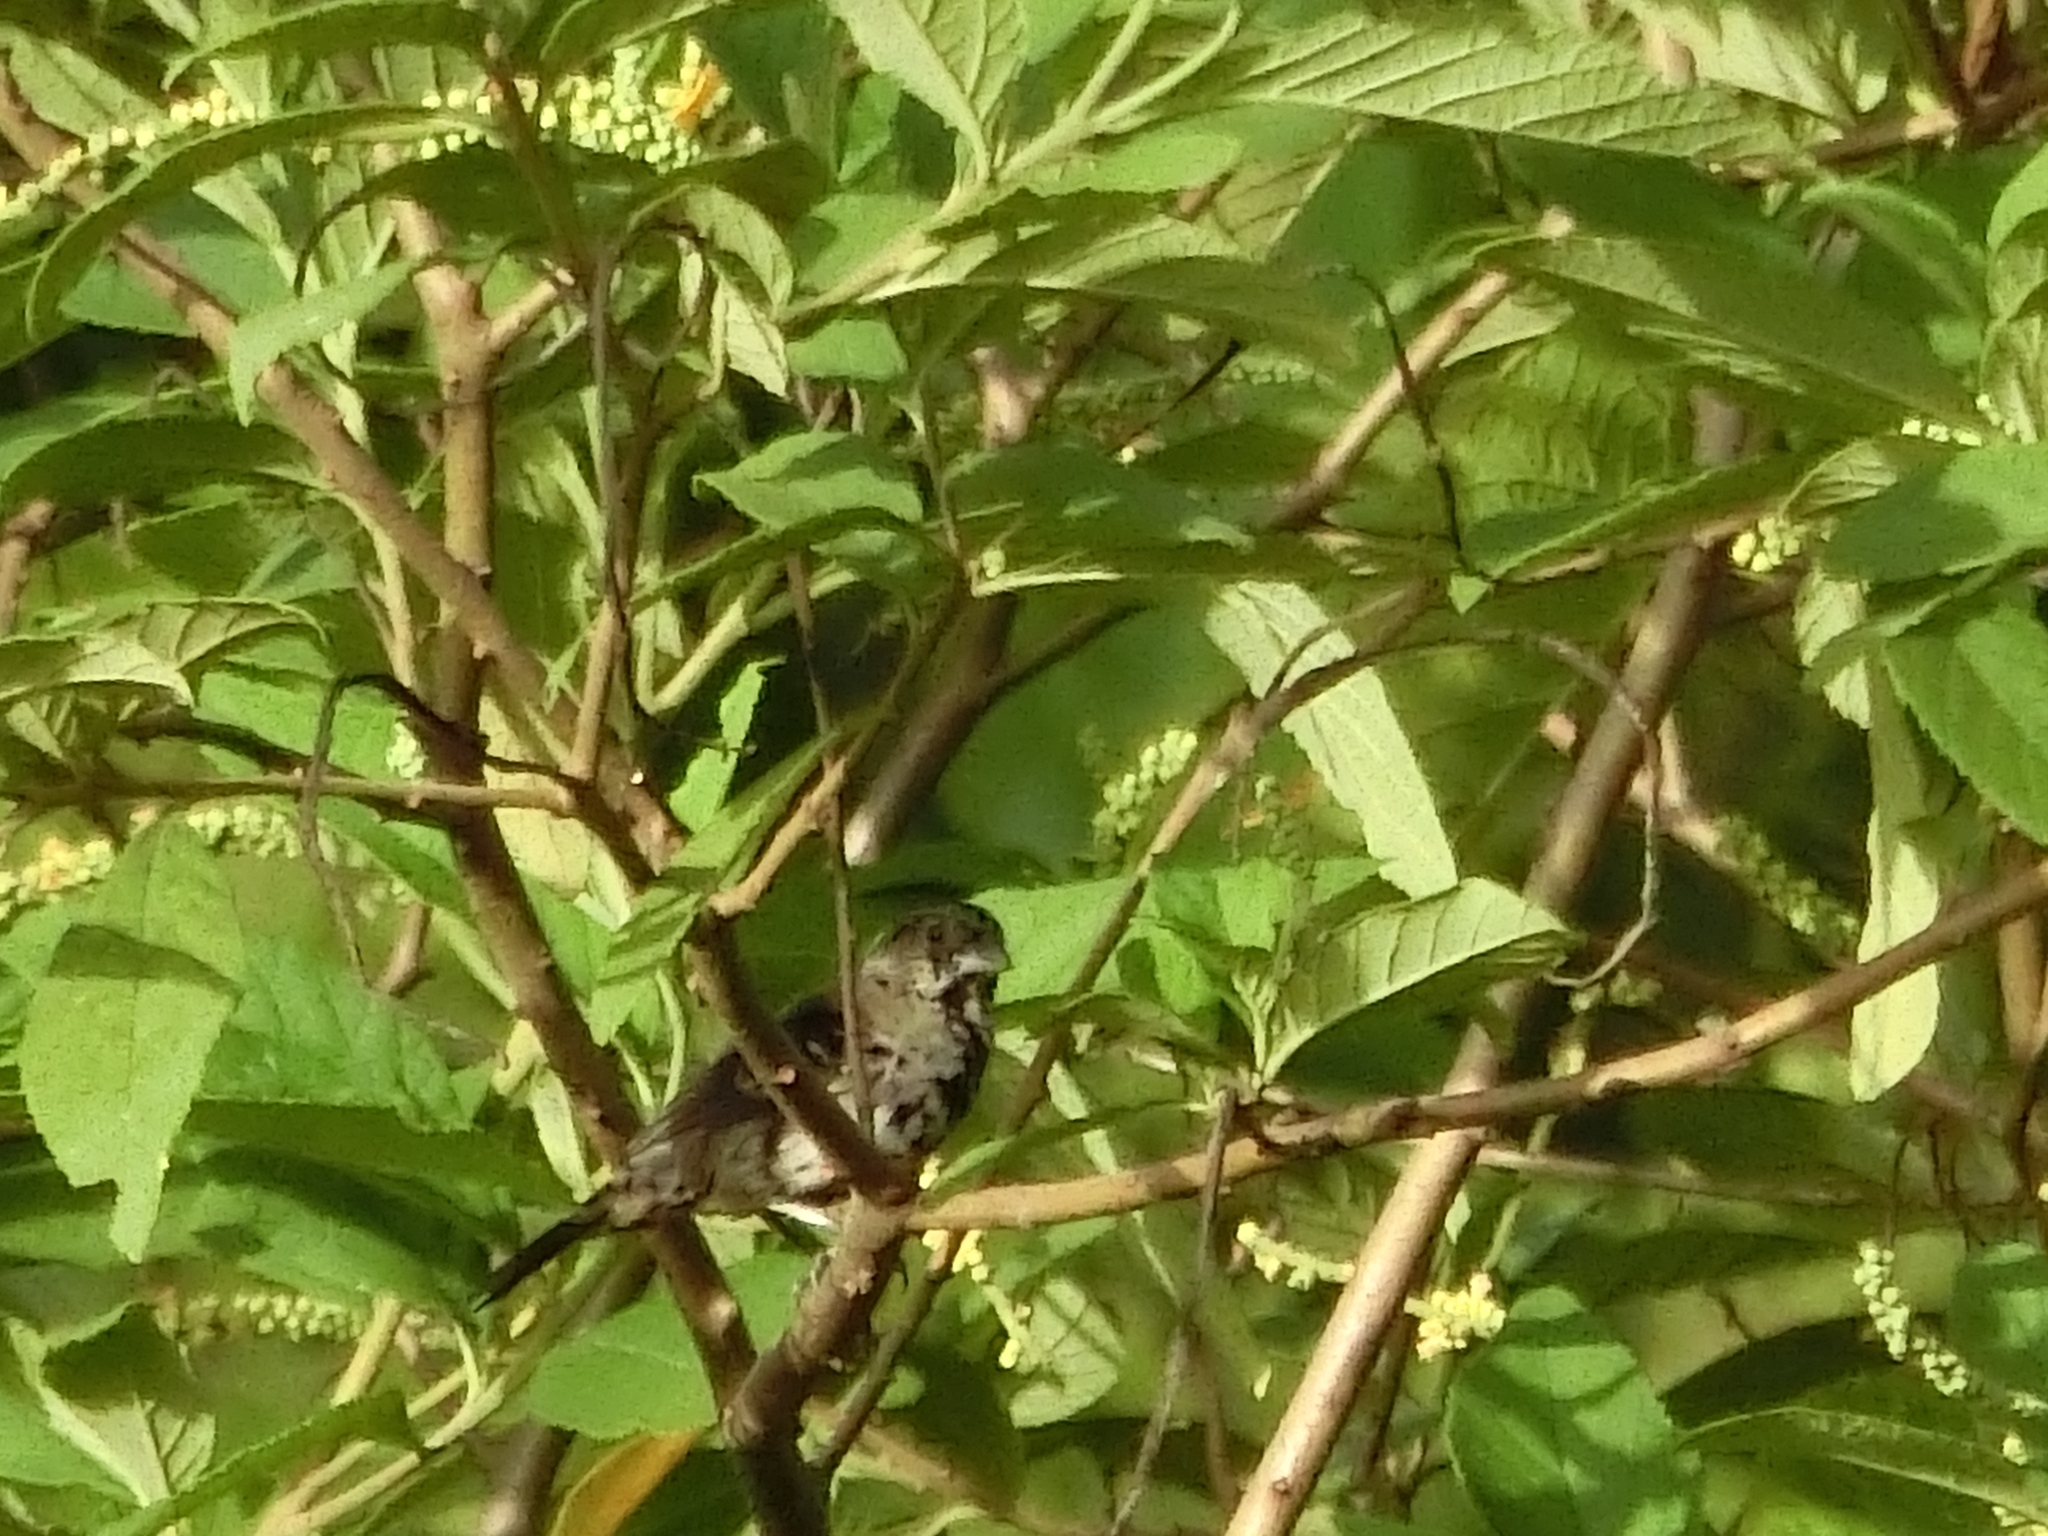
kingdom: Animalia
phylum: Chordata
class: Aves
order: Passeriformes
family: Thraupidae
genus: Volatinia
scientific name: Volatinia jacarina
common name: Blue-black grassquit
